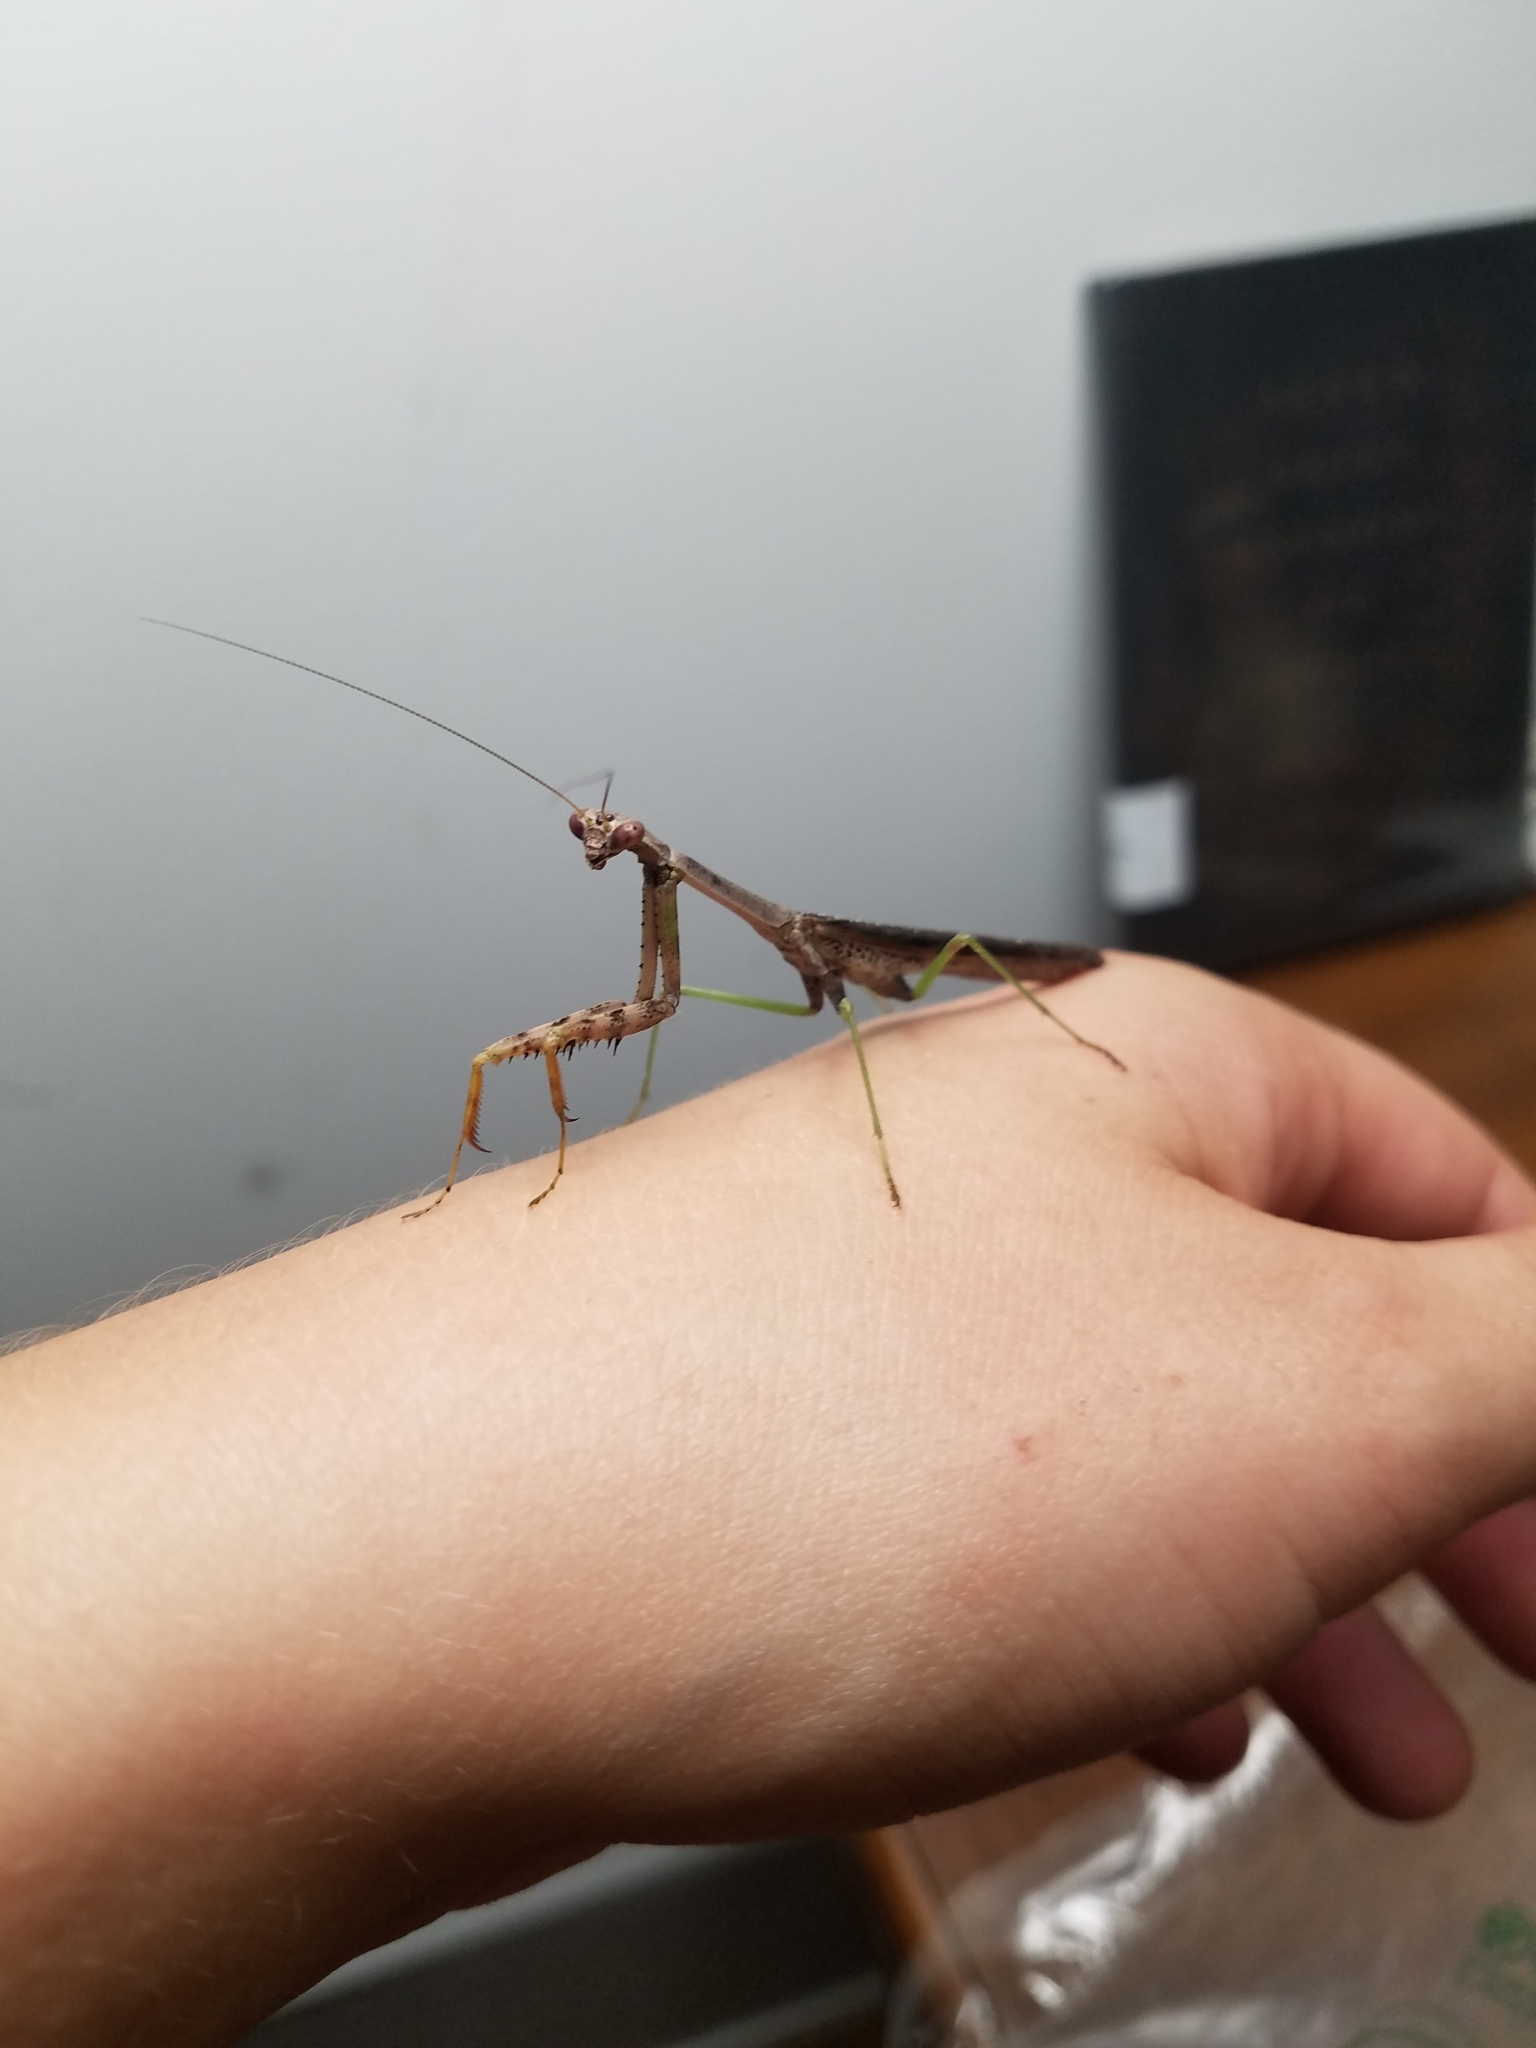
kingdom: Animalia
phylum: Arthropoda
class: Insecta
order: Mantodea
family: Mantidae
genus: Stagmomantis
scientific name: Stagmomantis carolina
